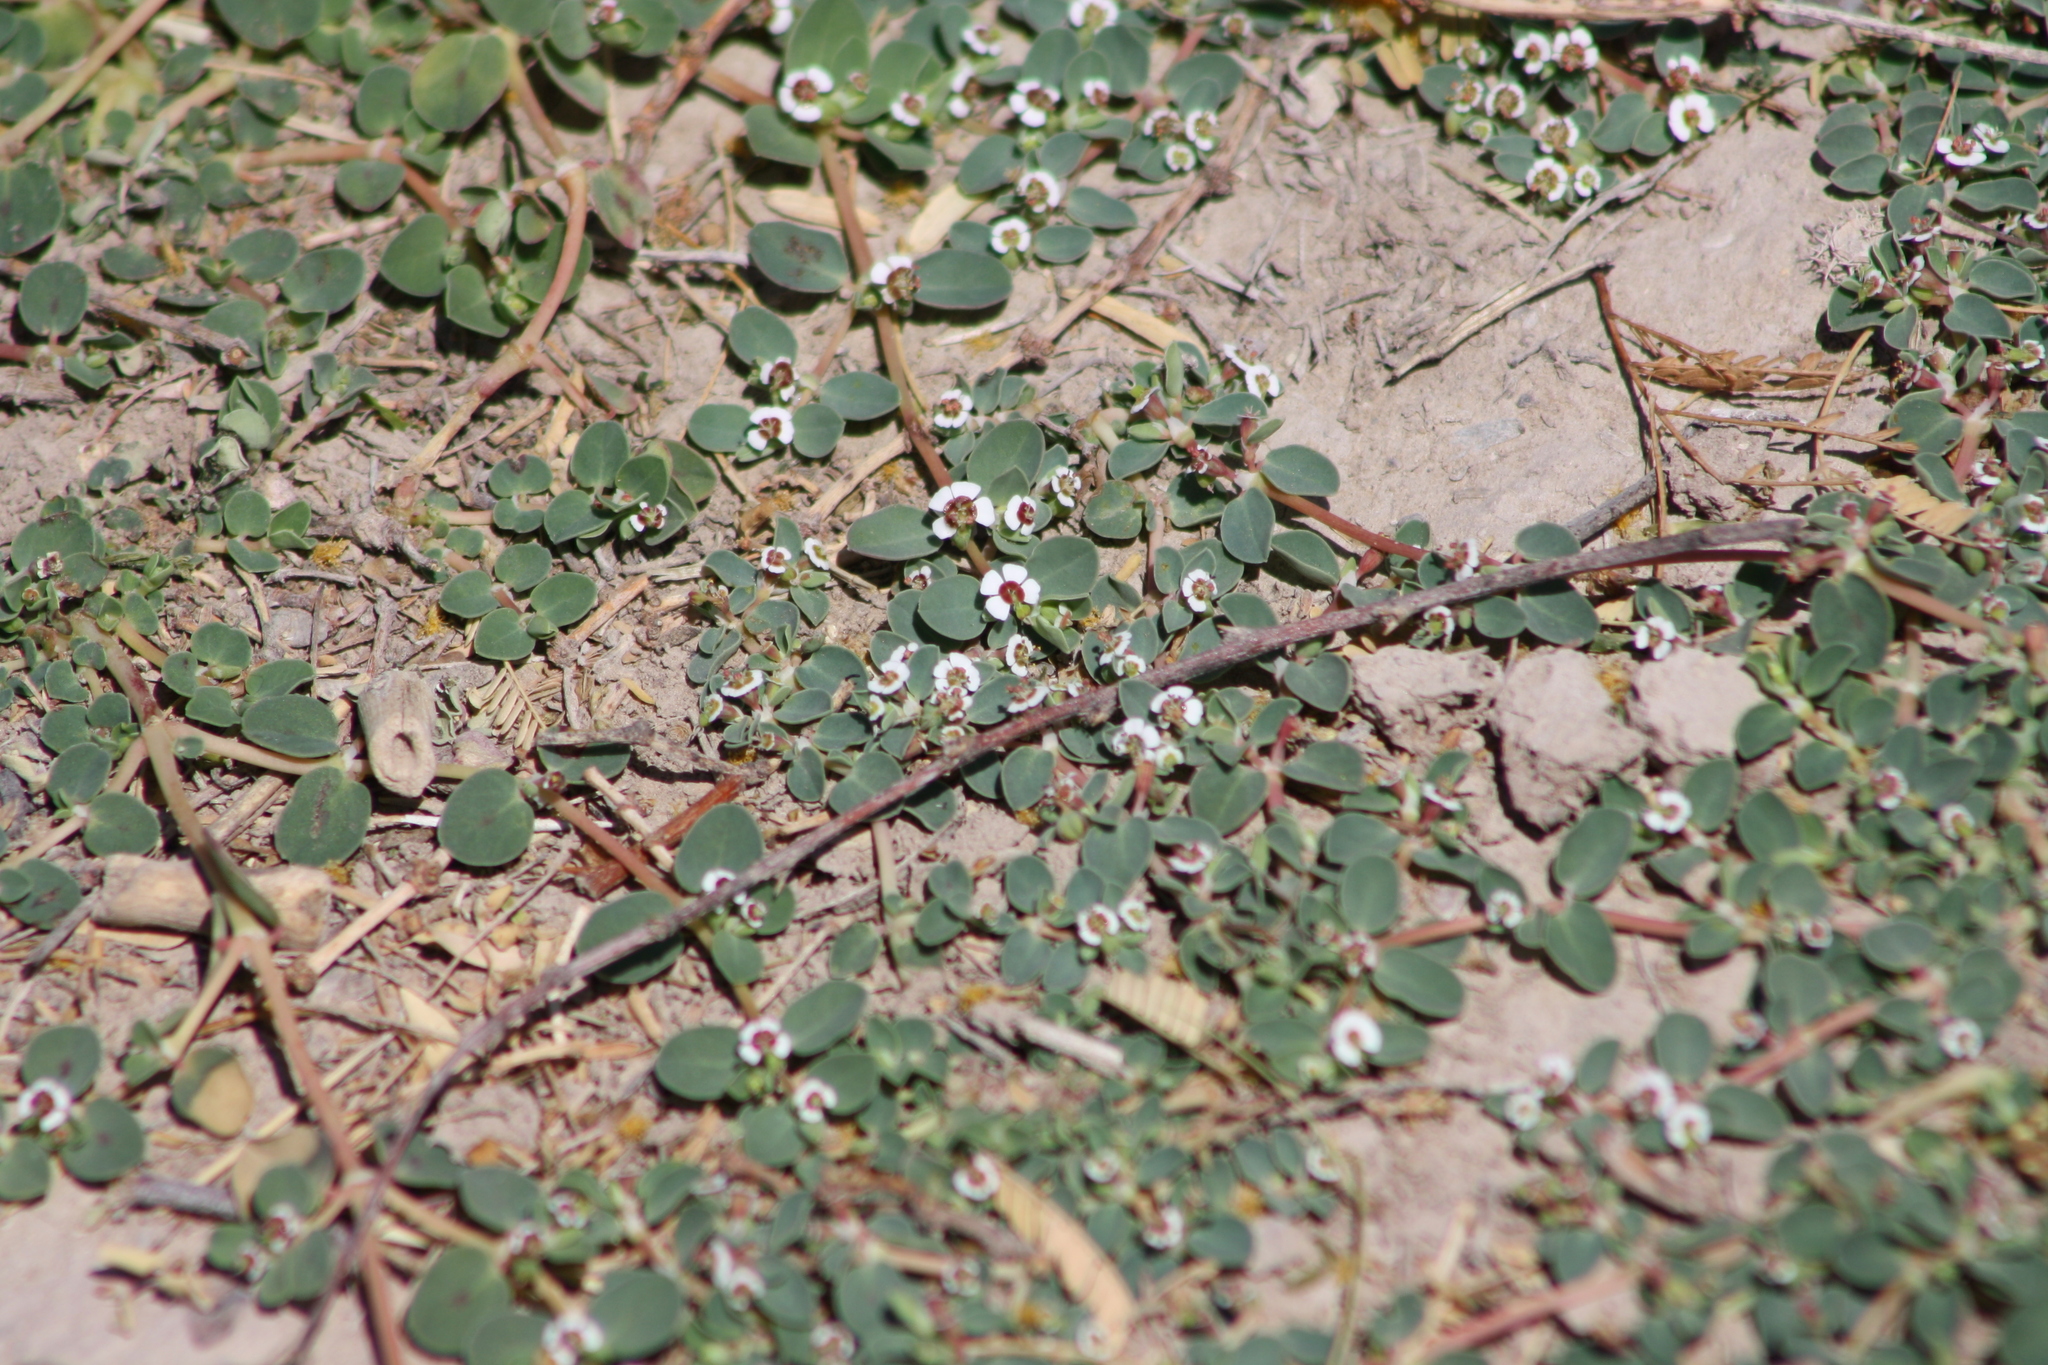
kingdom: Plantae
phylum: Tracheophyta
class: Magnoliopsida
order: Malpighiales
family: Euphorbiaceae
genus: Euphorbia
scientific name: Euphorbia albomarginata
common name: Whitemargin sandmat
